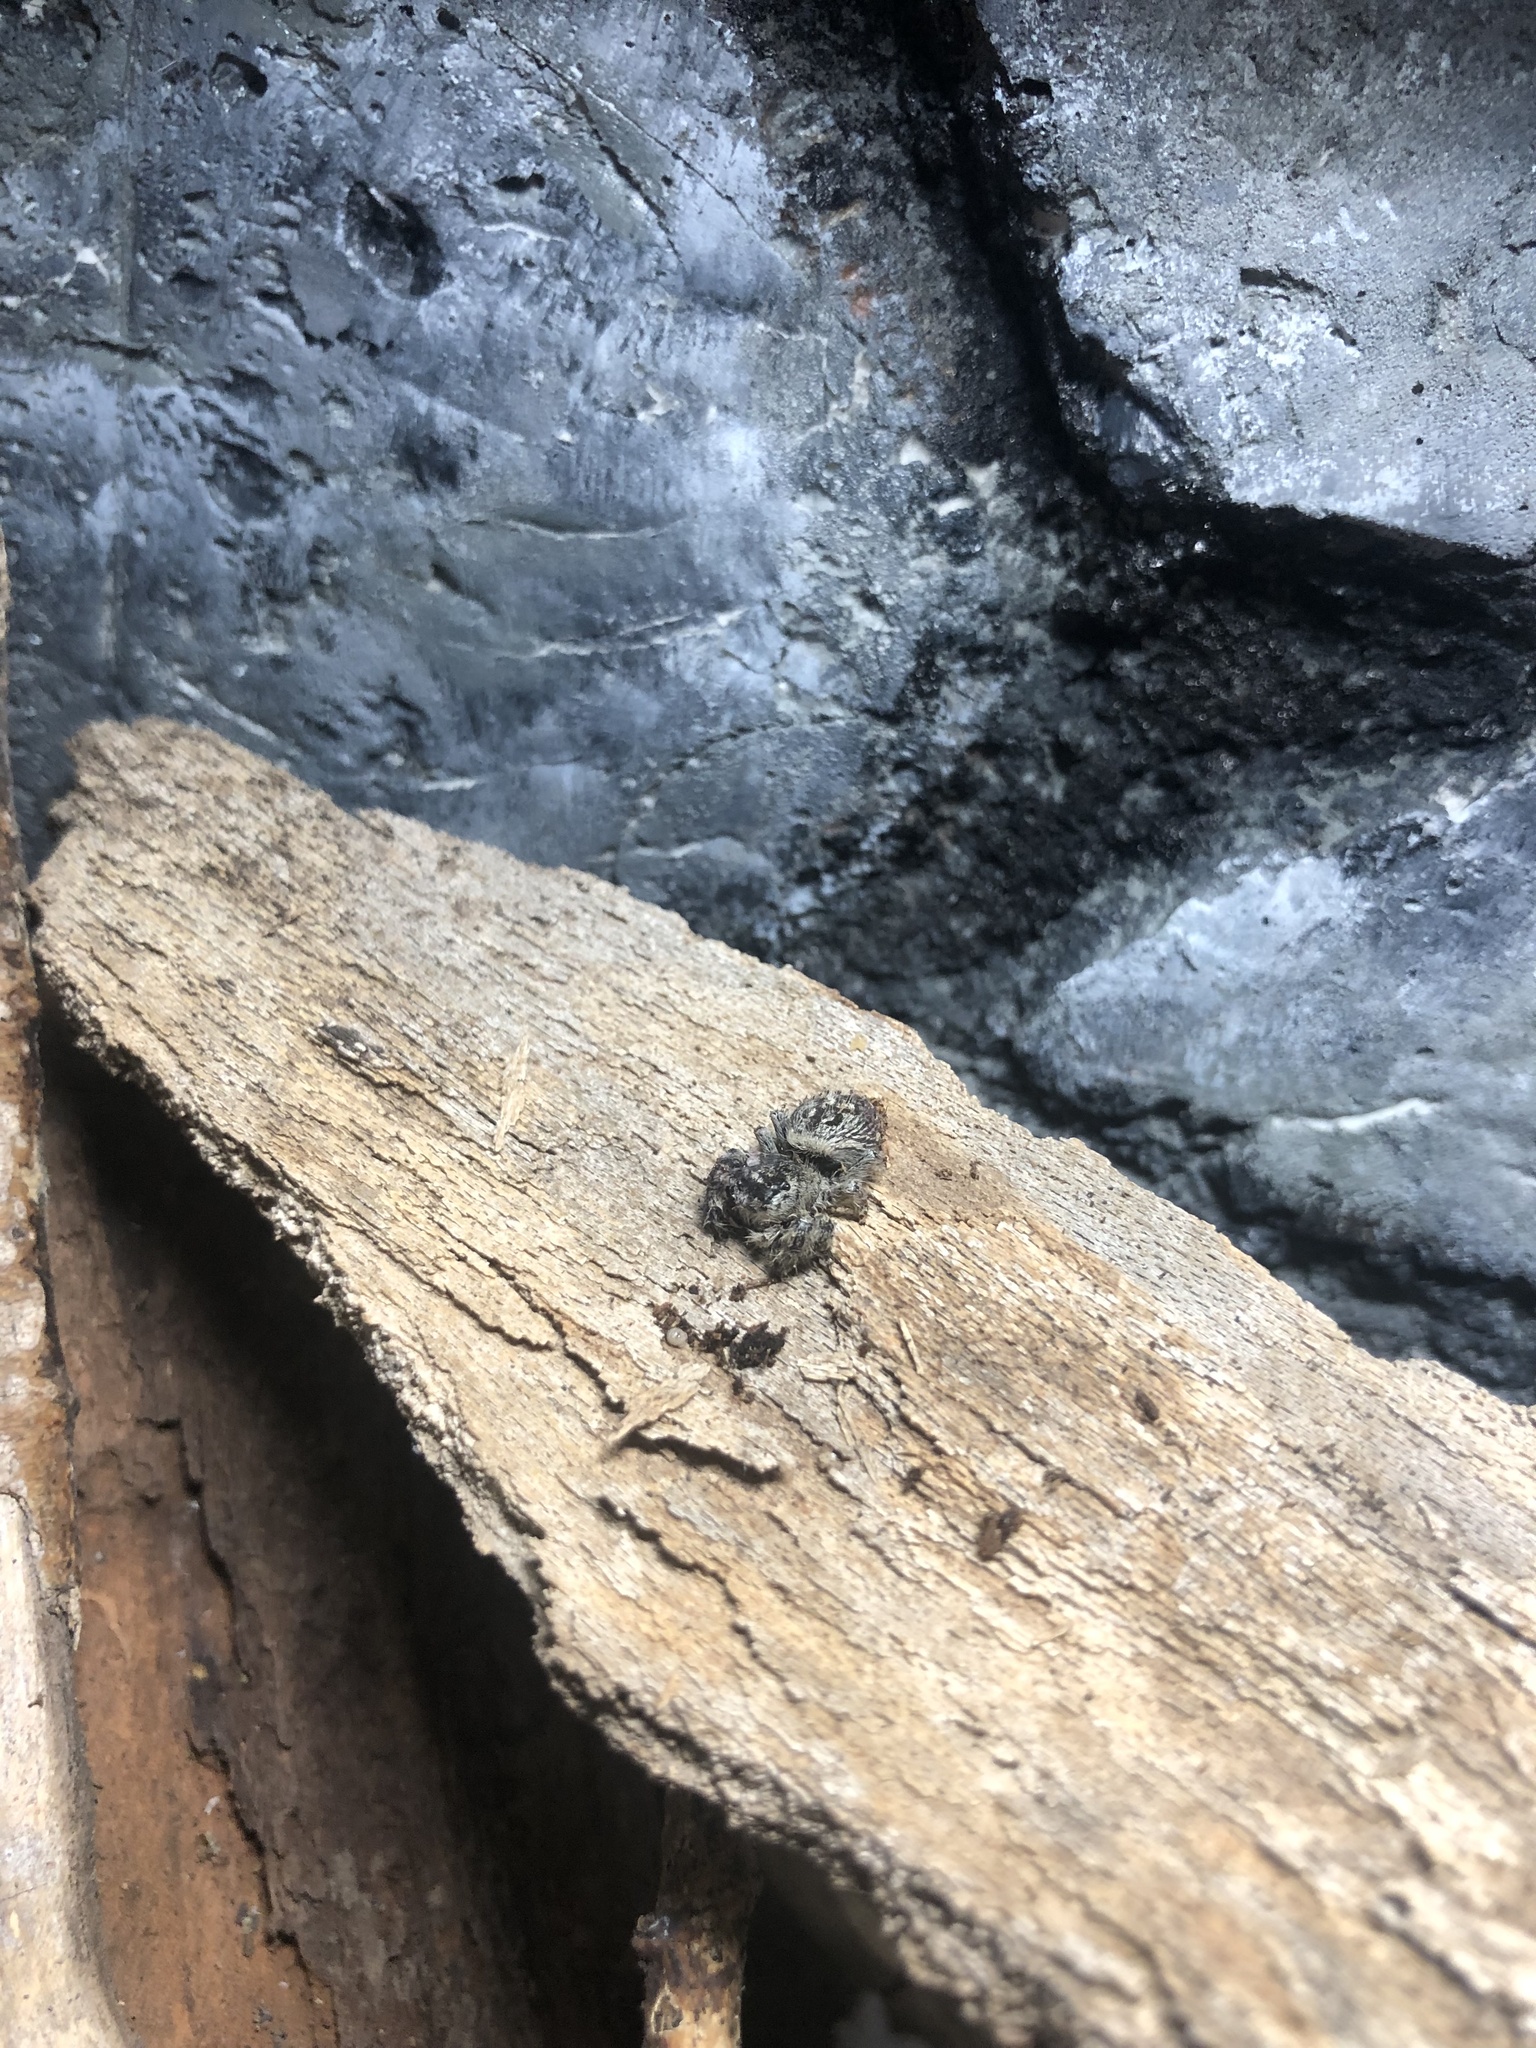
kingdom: Animalia
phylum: Arthropoda
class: Arachnida
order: Araneae
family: Salticidae
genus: Phidippus
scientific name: Phidippus otiosus
